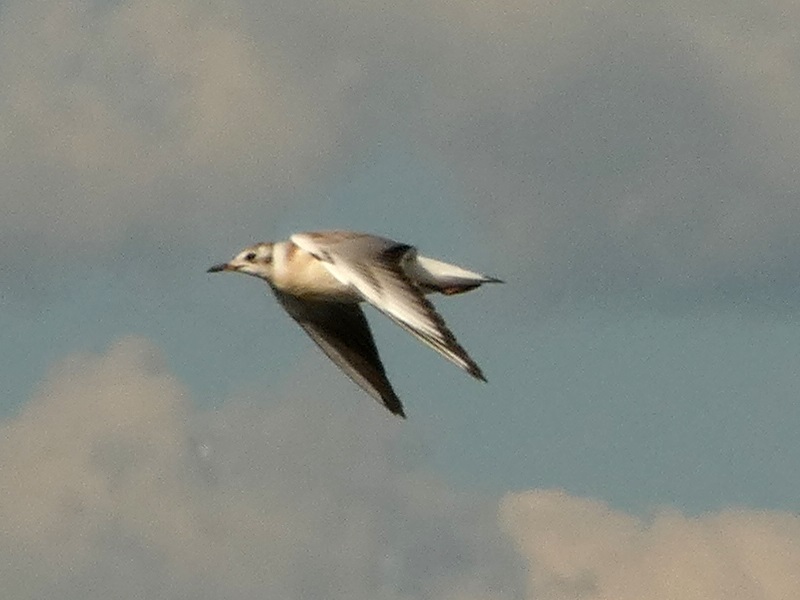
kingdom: Animalia
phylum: Chordata
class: Aves
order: Charadriiformes
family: Laridae
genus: Chroicocephalus
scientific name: Chroicocephalus ridibundus
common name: Black-headed gull
